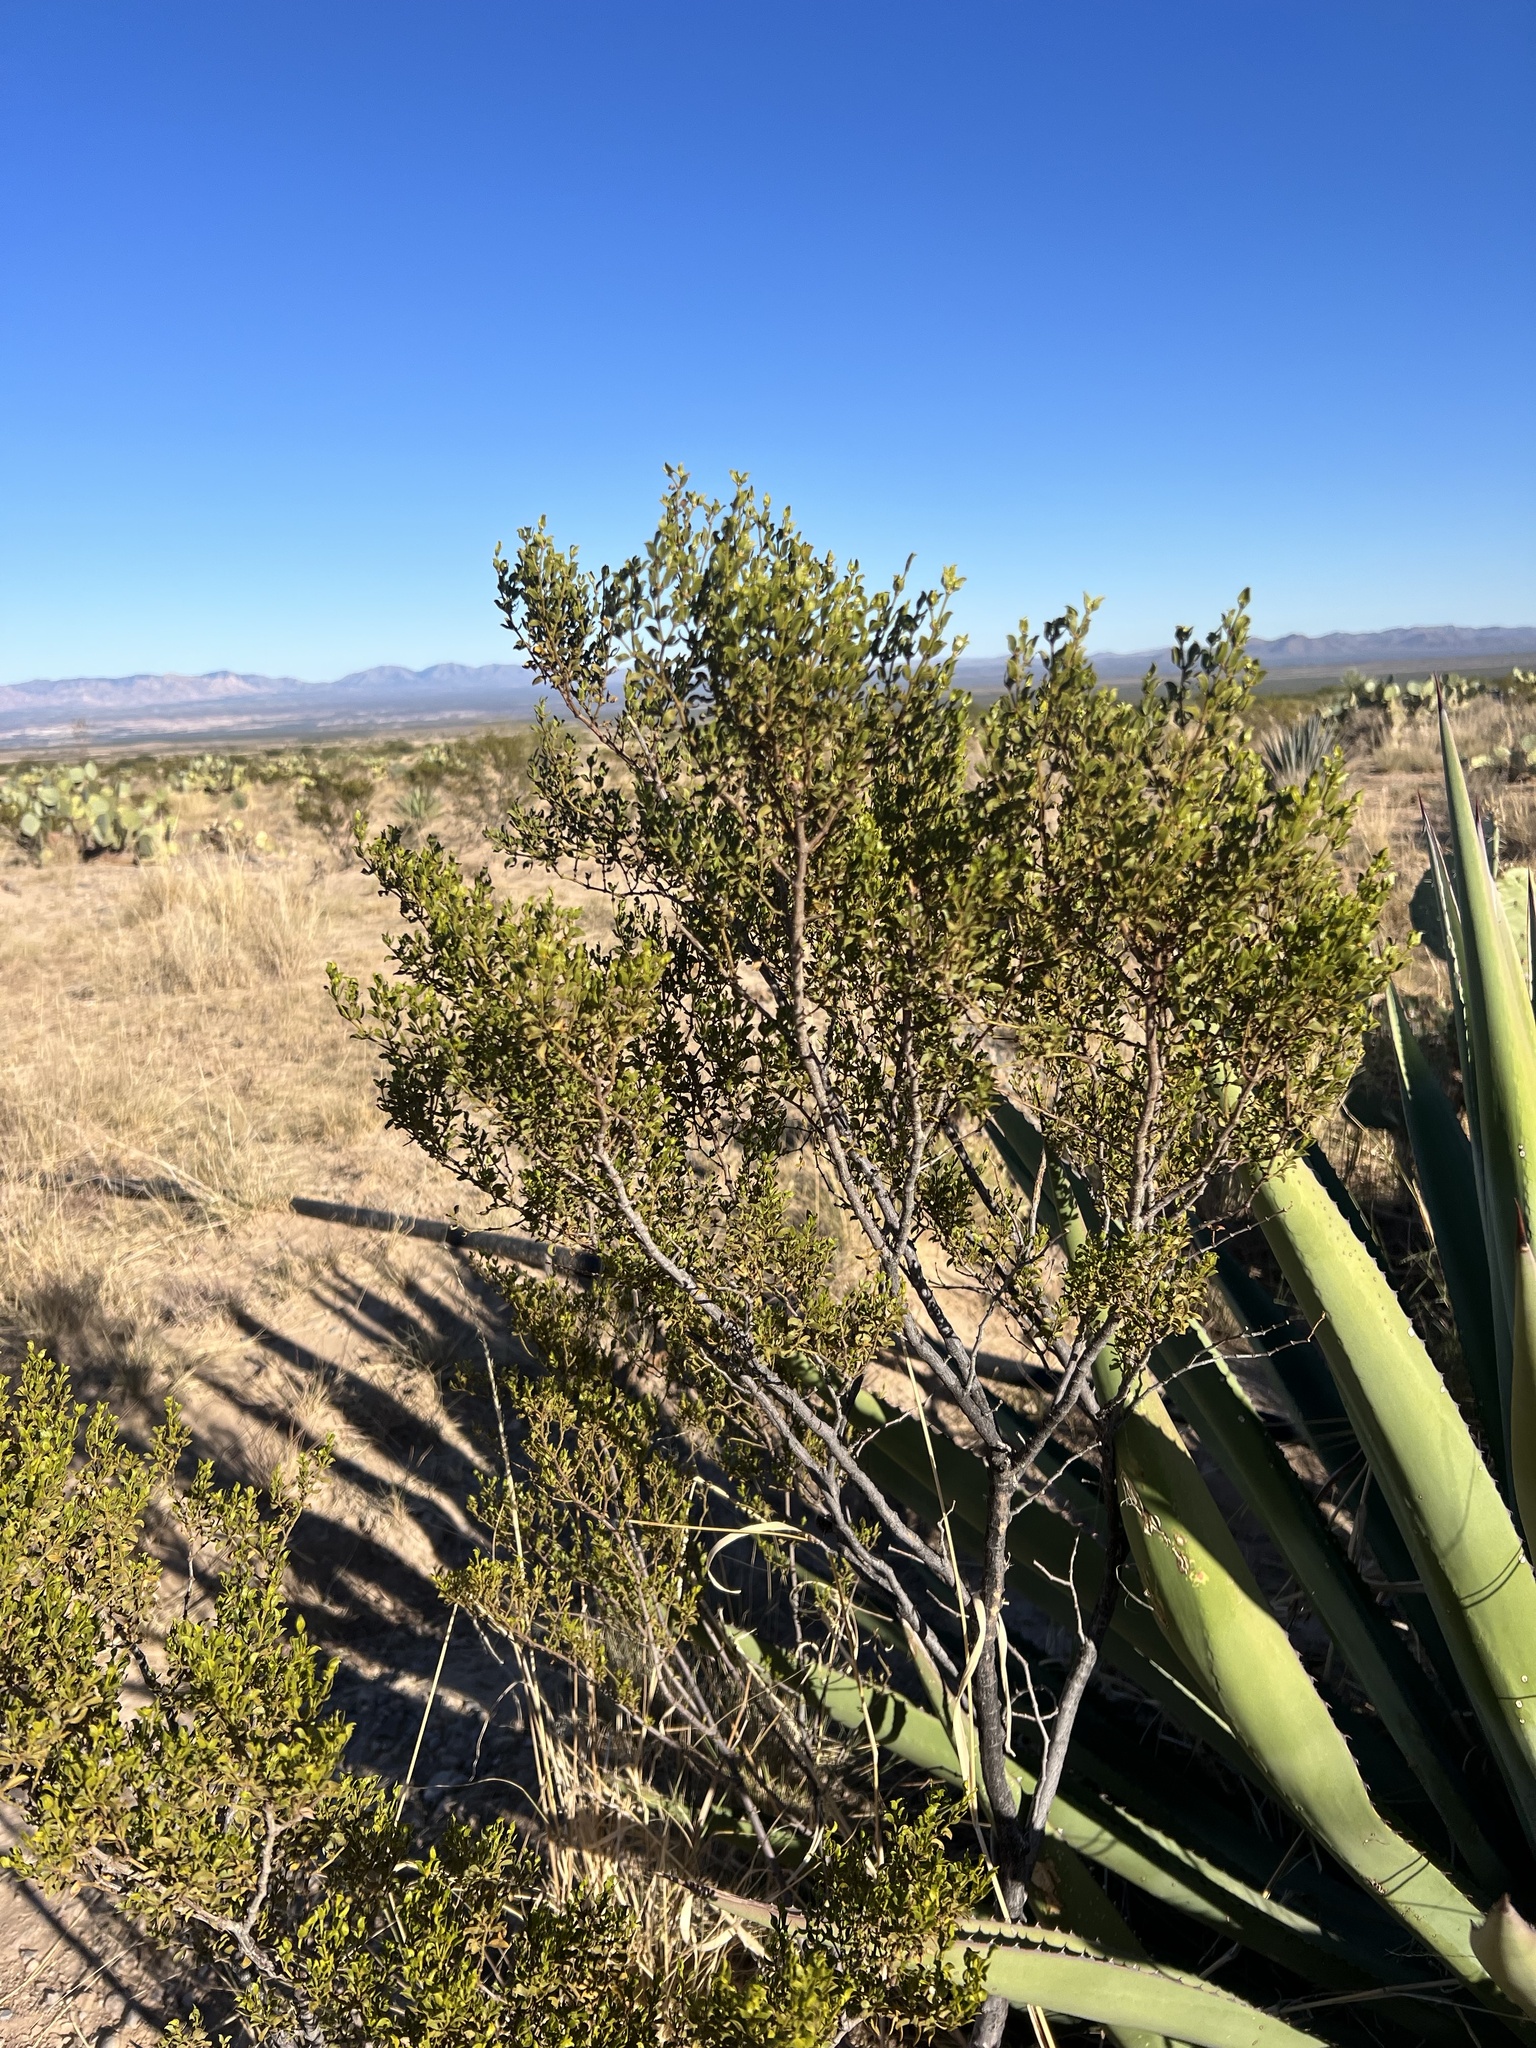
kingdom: Plantae
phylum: Tracheophyta
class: Magnoliopsida
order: Zygophyllales
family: Zygophyllaceae
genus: Larrea
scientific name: Larrea tridentata
